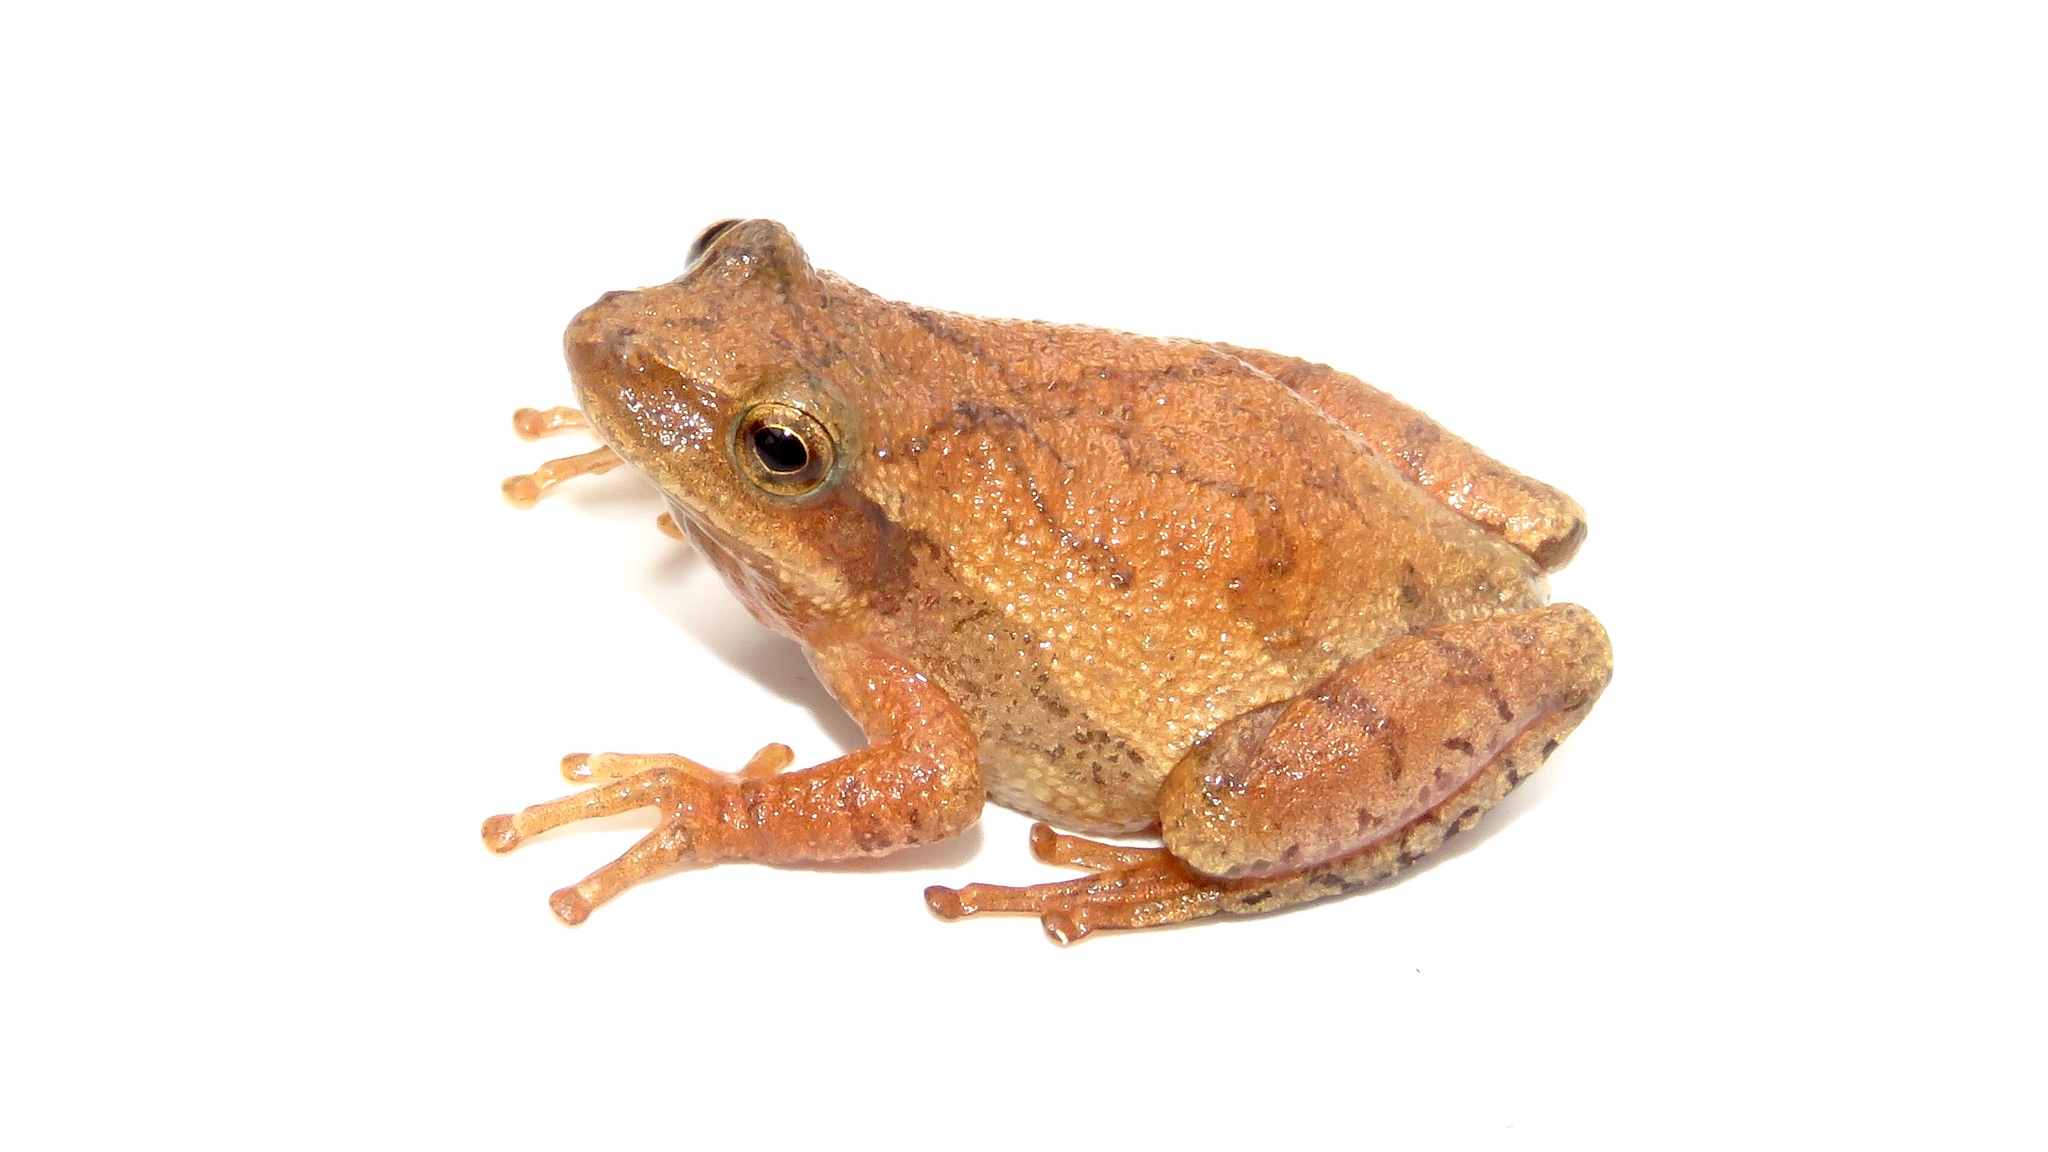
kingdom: Animalia
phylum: Chordata
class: Amphibia
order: Anura
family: Hylidae
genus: Pseudacris
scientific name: Pseudacris crucifer
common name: Spring peeper
